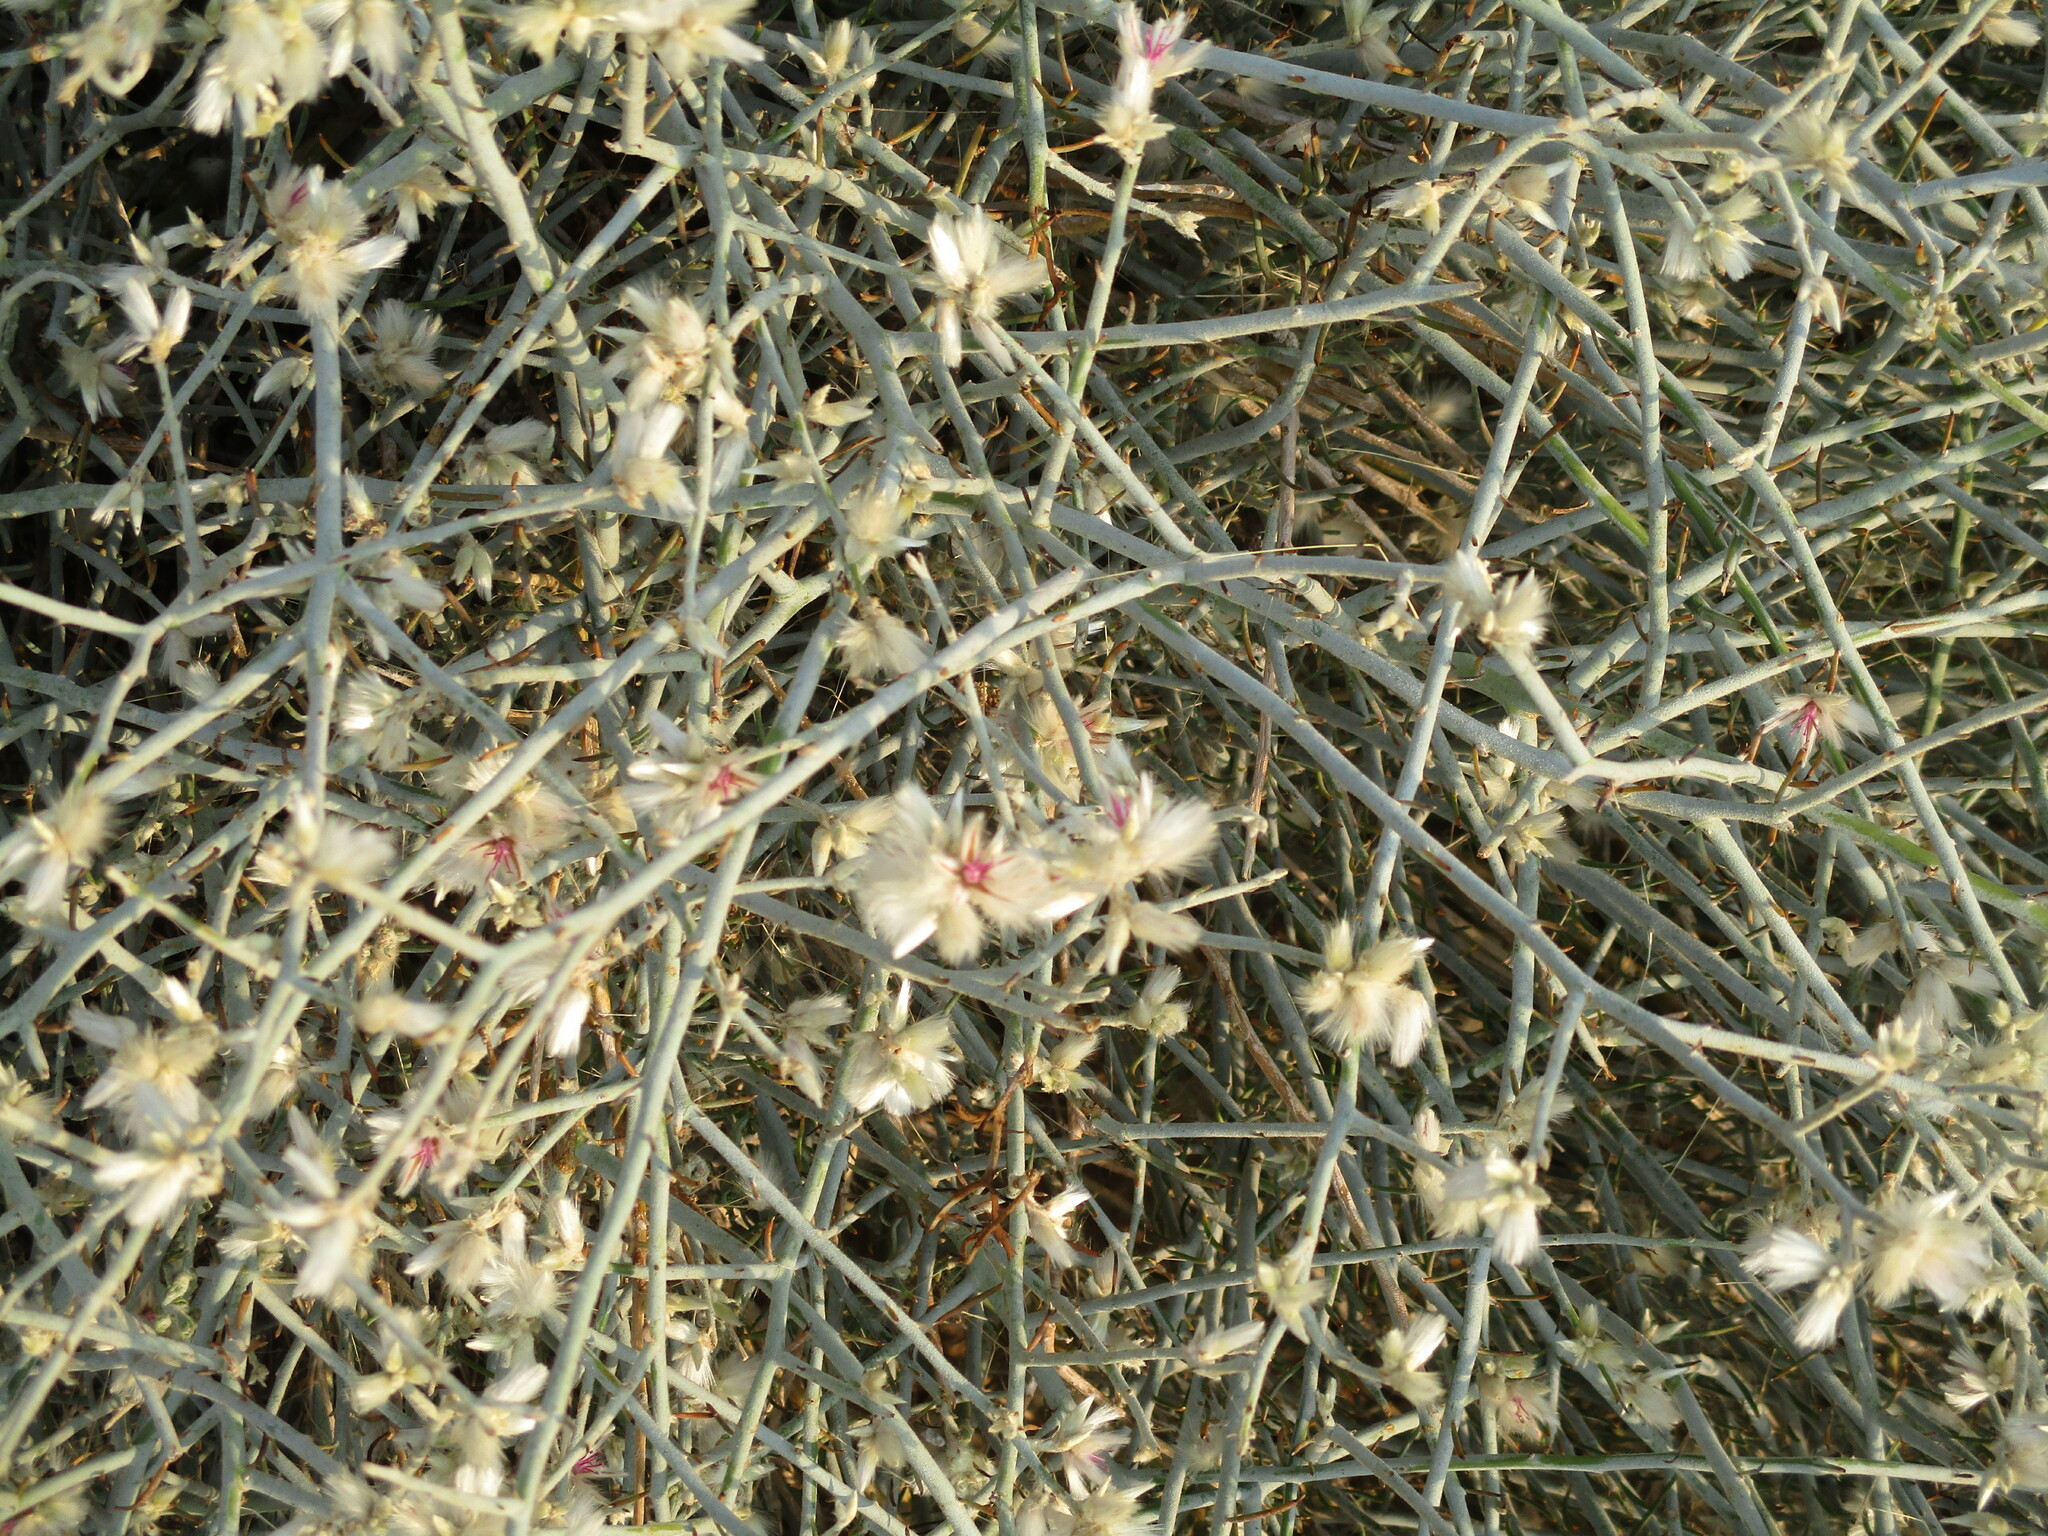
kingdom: Plantae
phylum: Tracheophyta
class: Magnoliopsida
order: Caryophyllales
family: Amaranthaceae
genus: Calicorema
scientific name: Calicorema capitata
